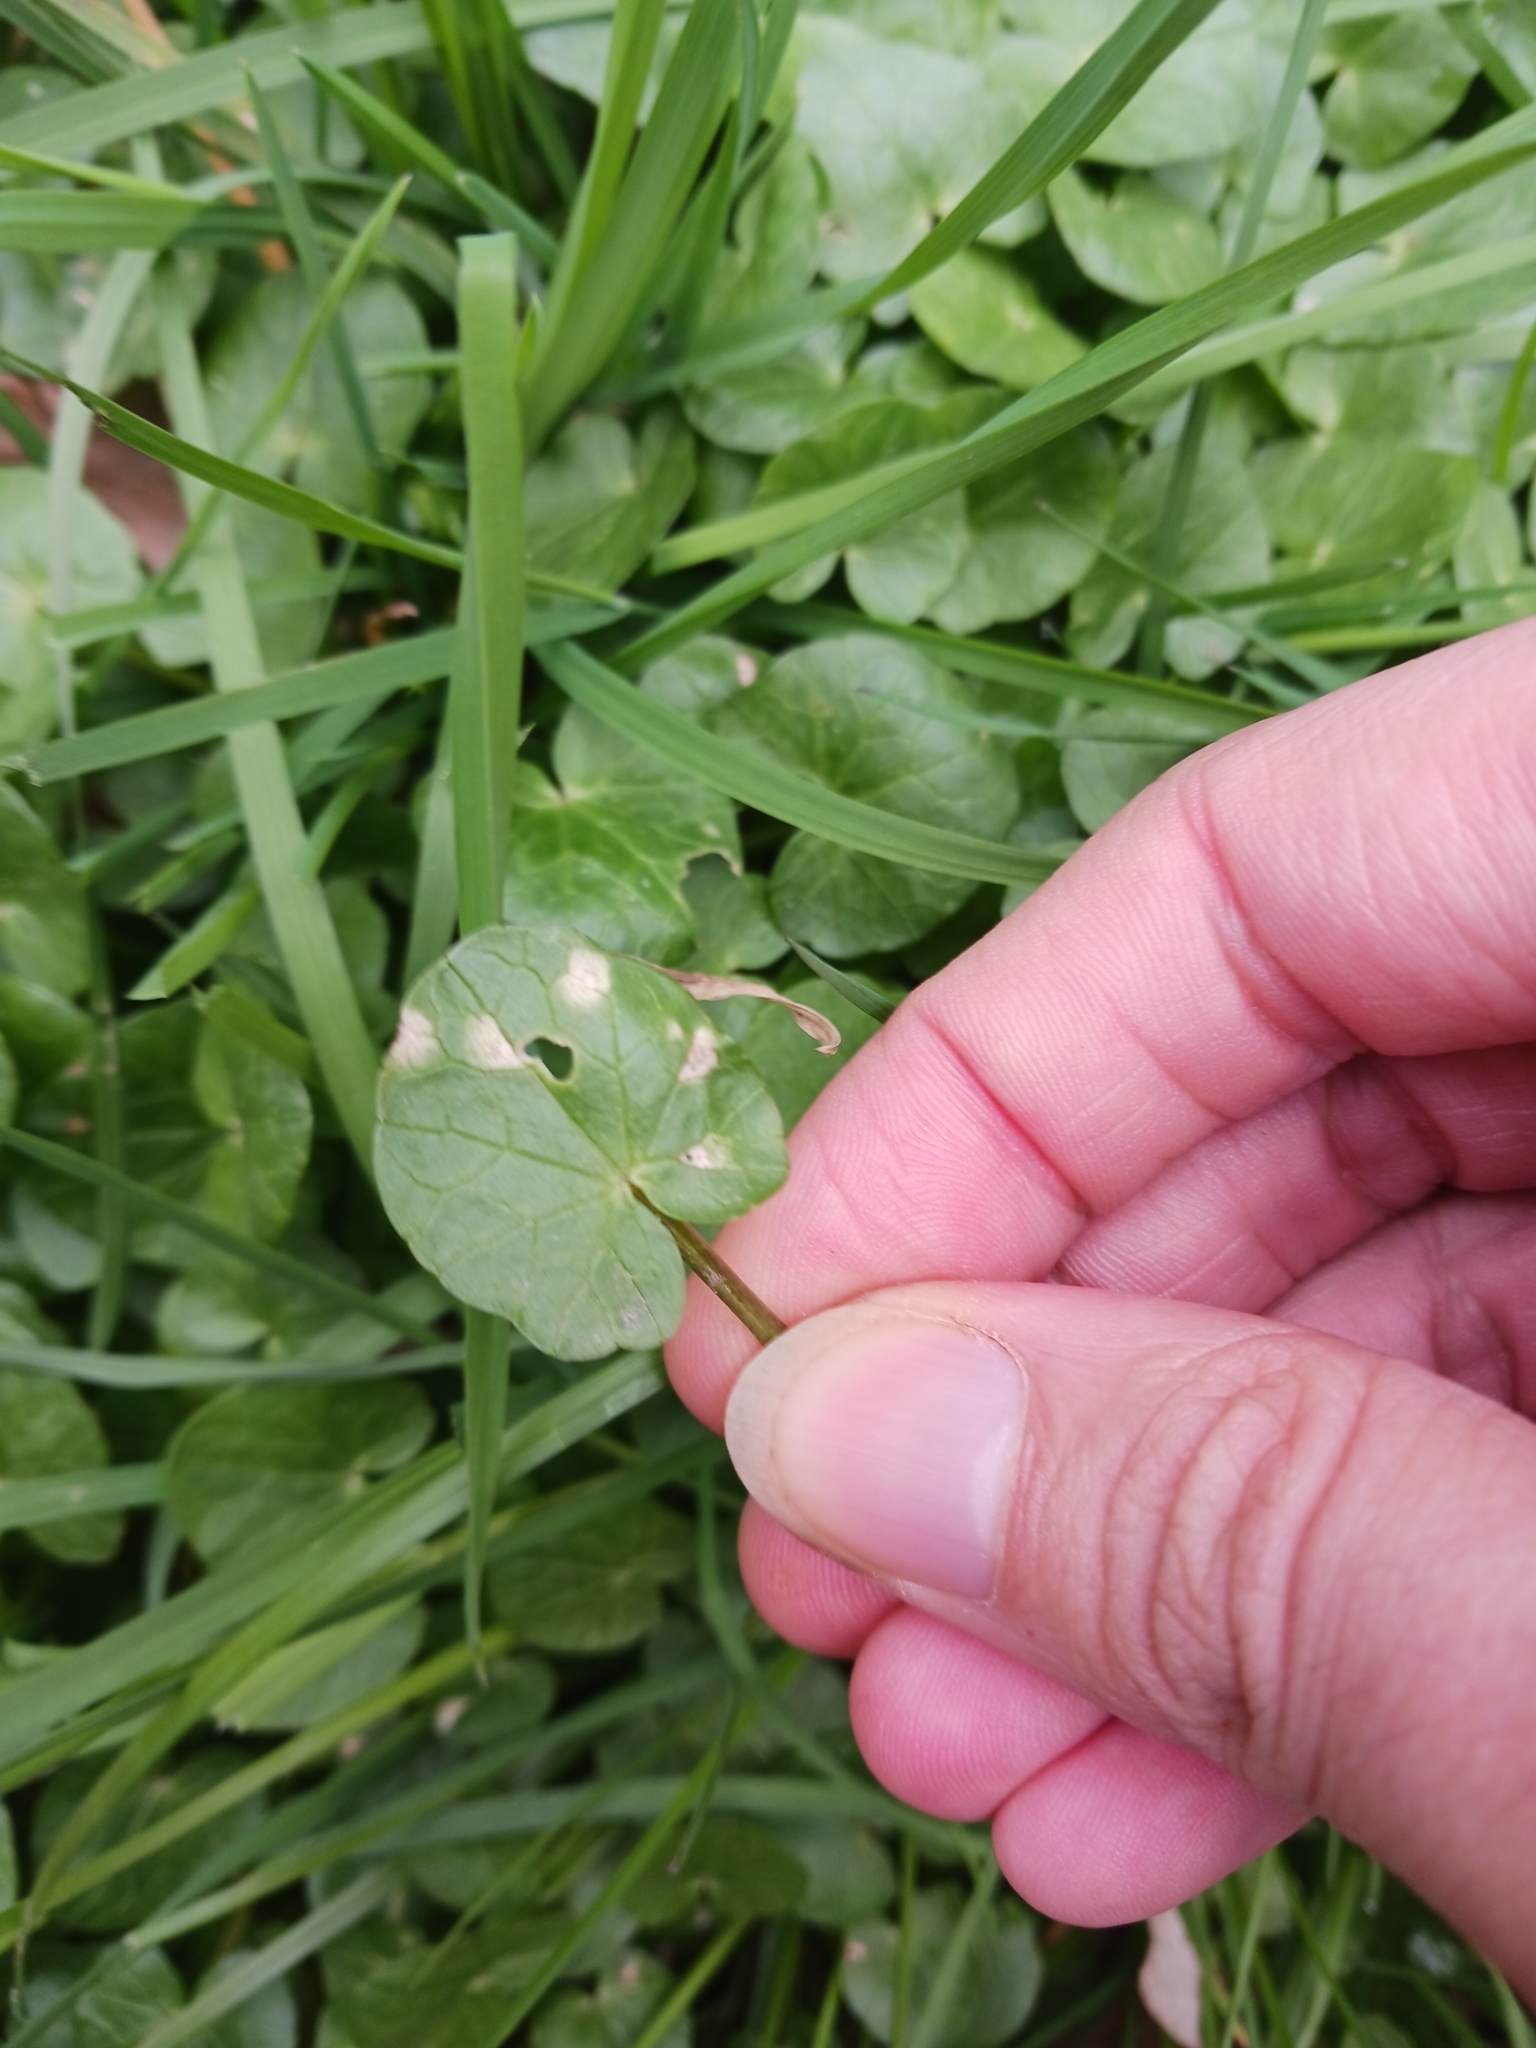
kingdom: Fungi
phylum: Basidiomycota
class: Exobasidiomycetes
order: Entylomatales
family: Entylomataceae
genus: Entyloma
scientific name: Entyloma ficariae
